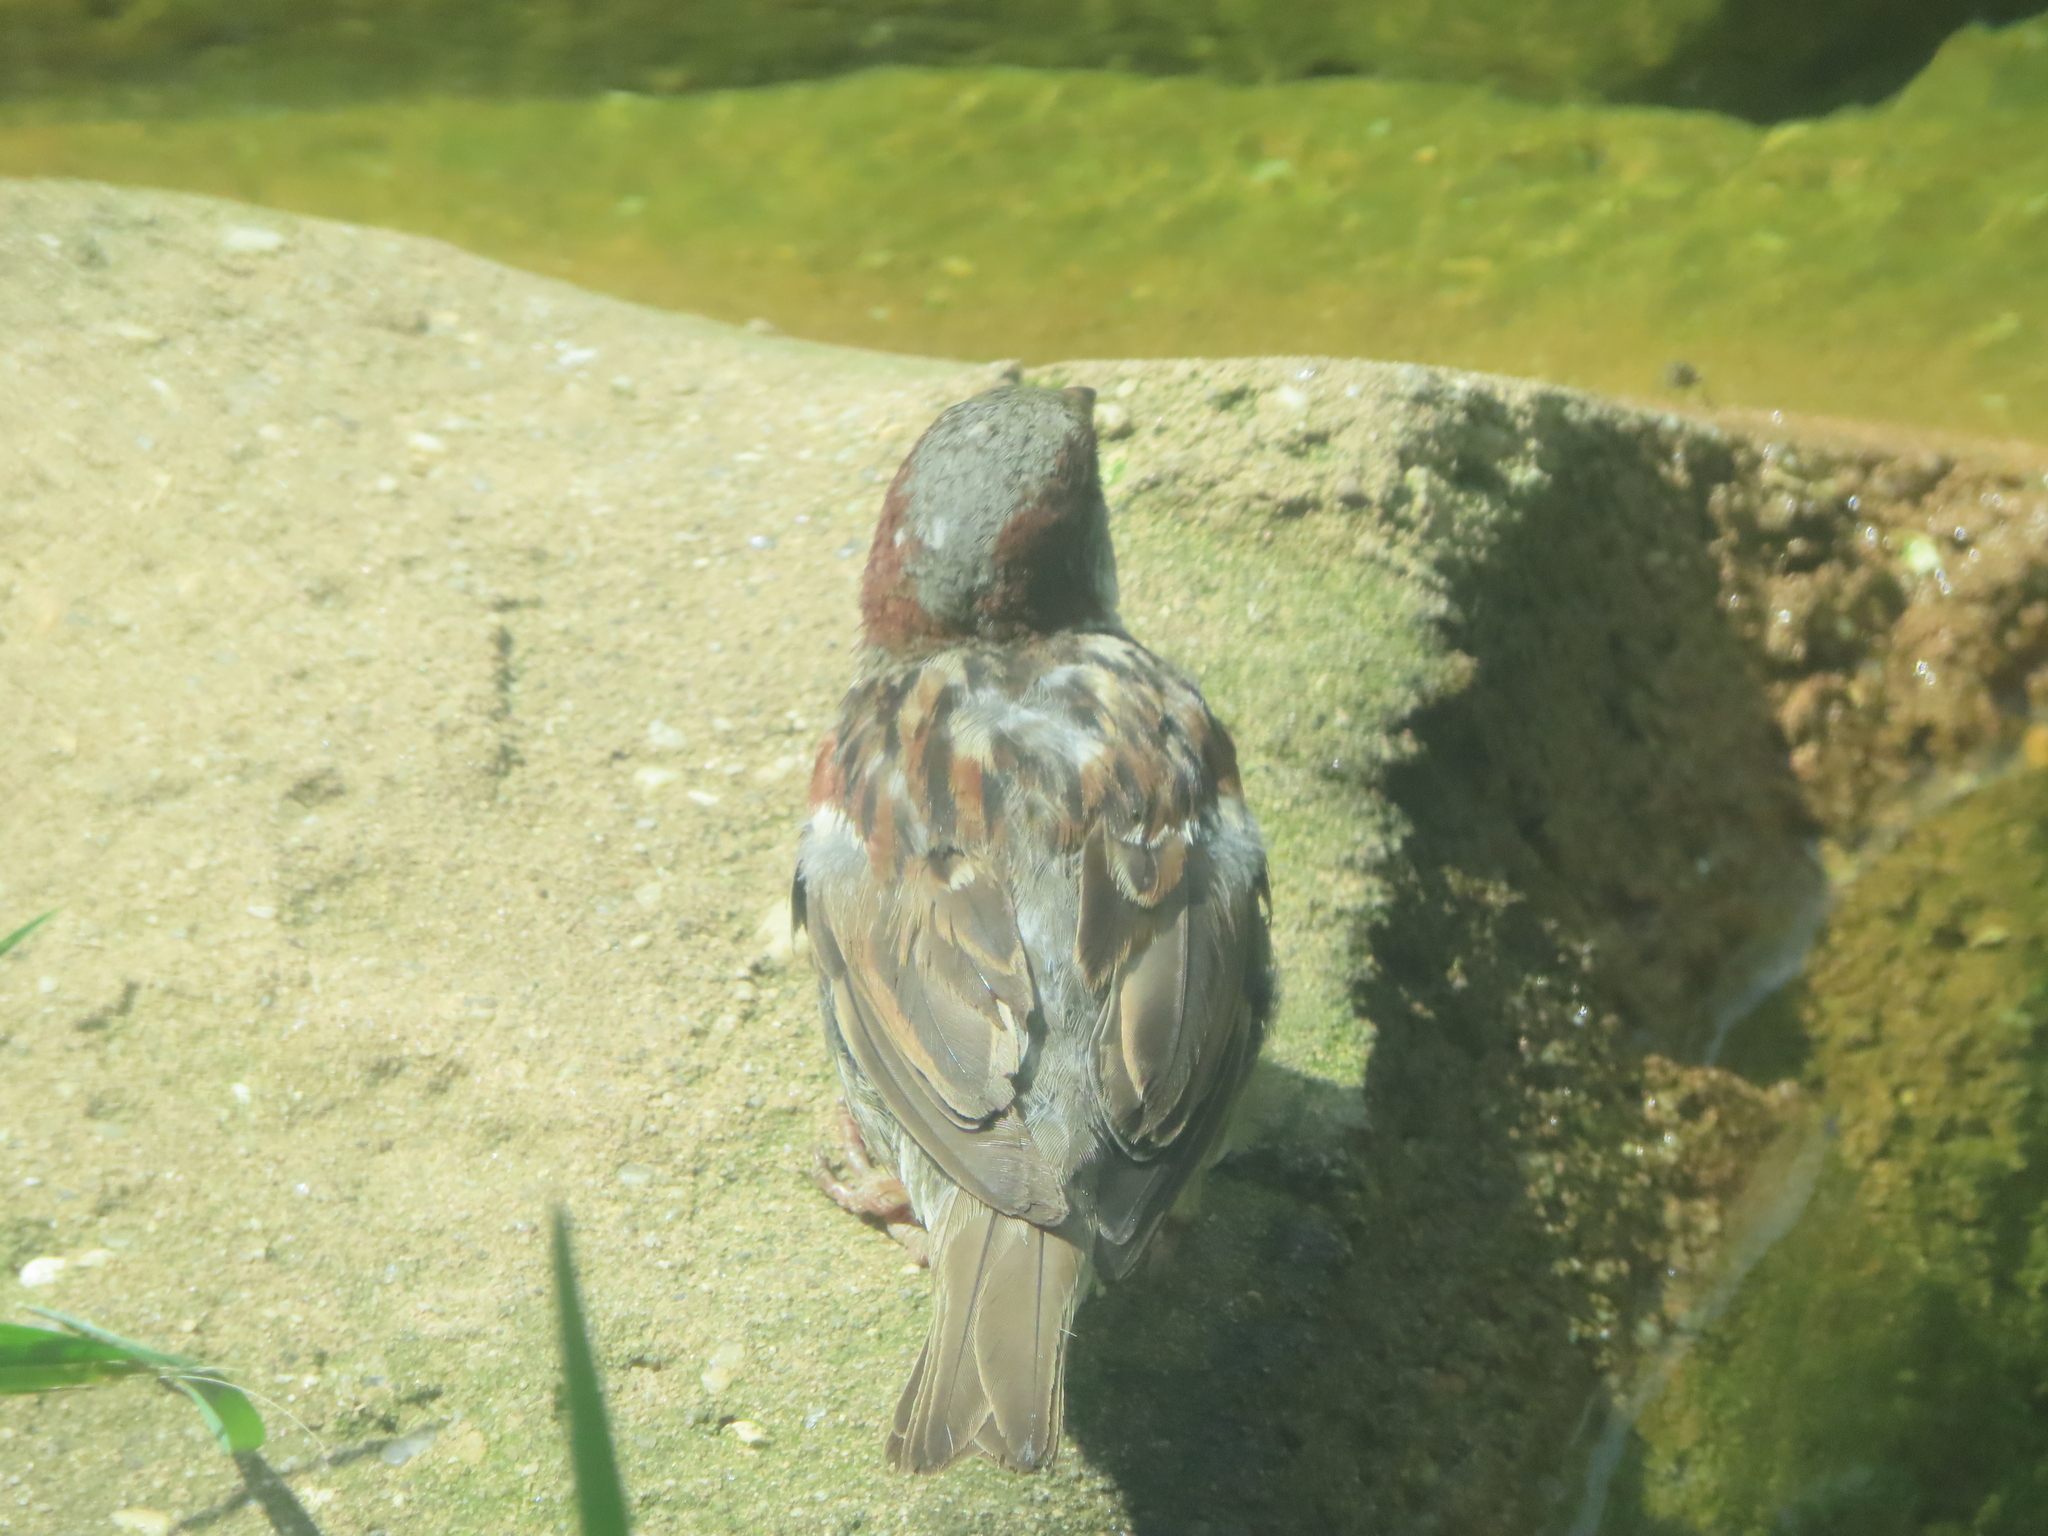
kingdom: Animalia
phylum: Chordata
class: Aves
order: Passeriformes
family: Passeridae
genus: Passer
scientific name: Passer domesticus
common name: House sparrow
